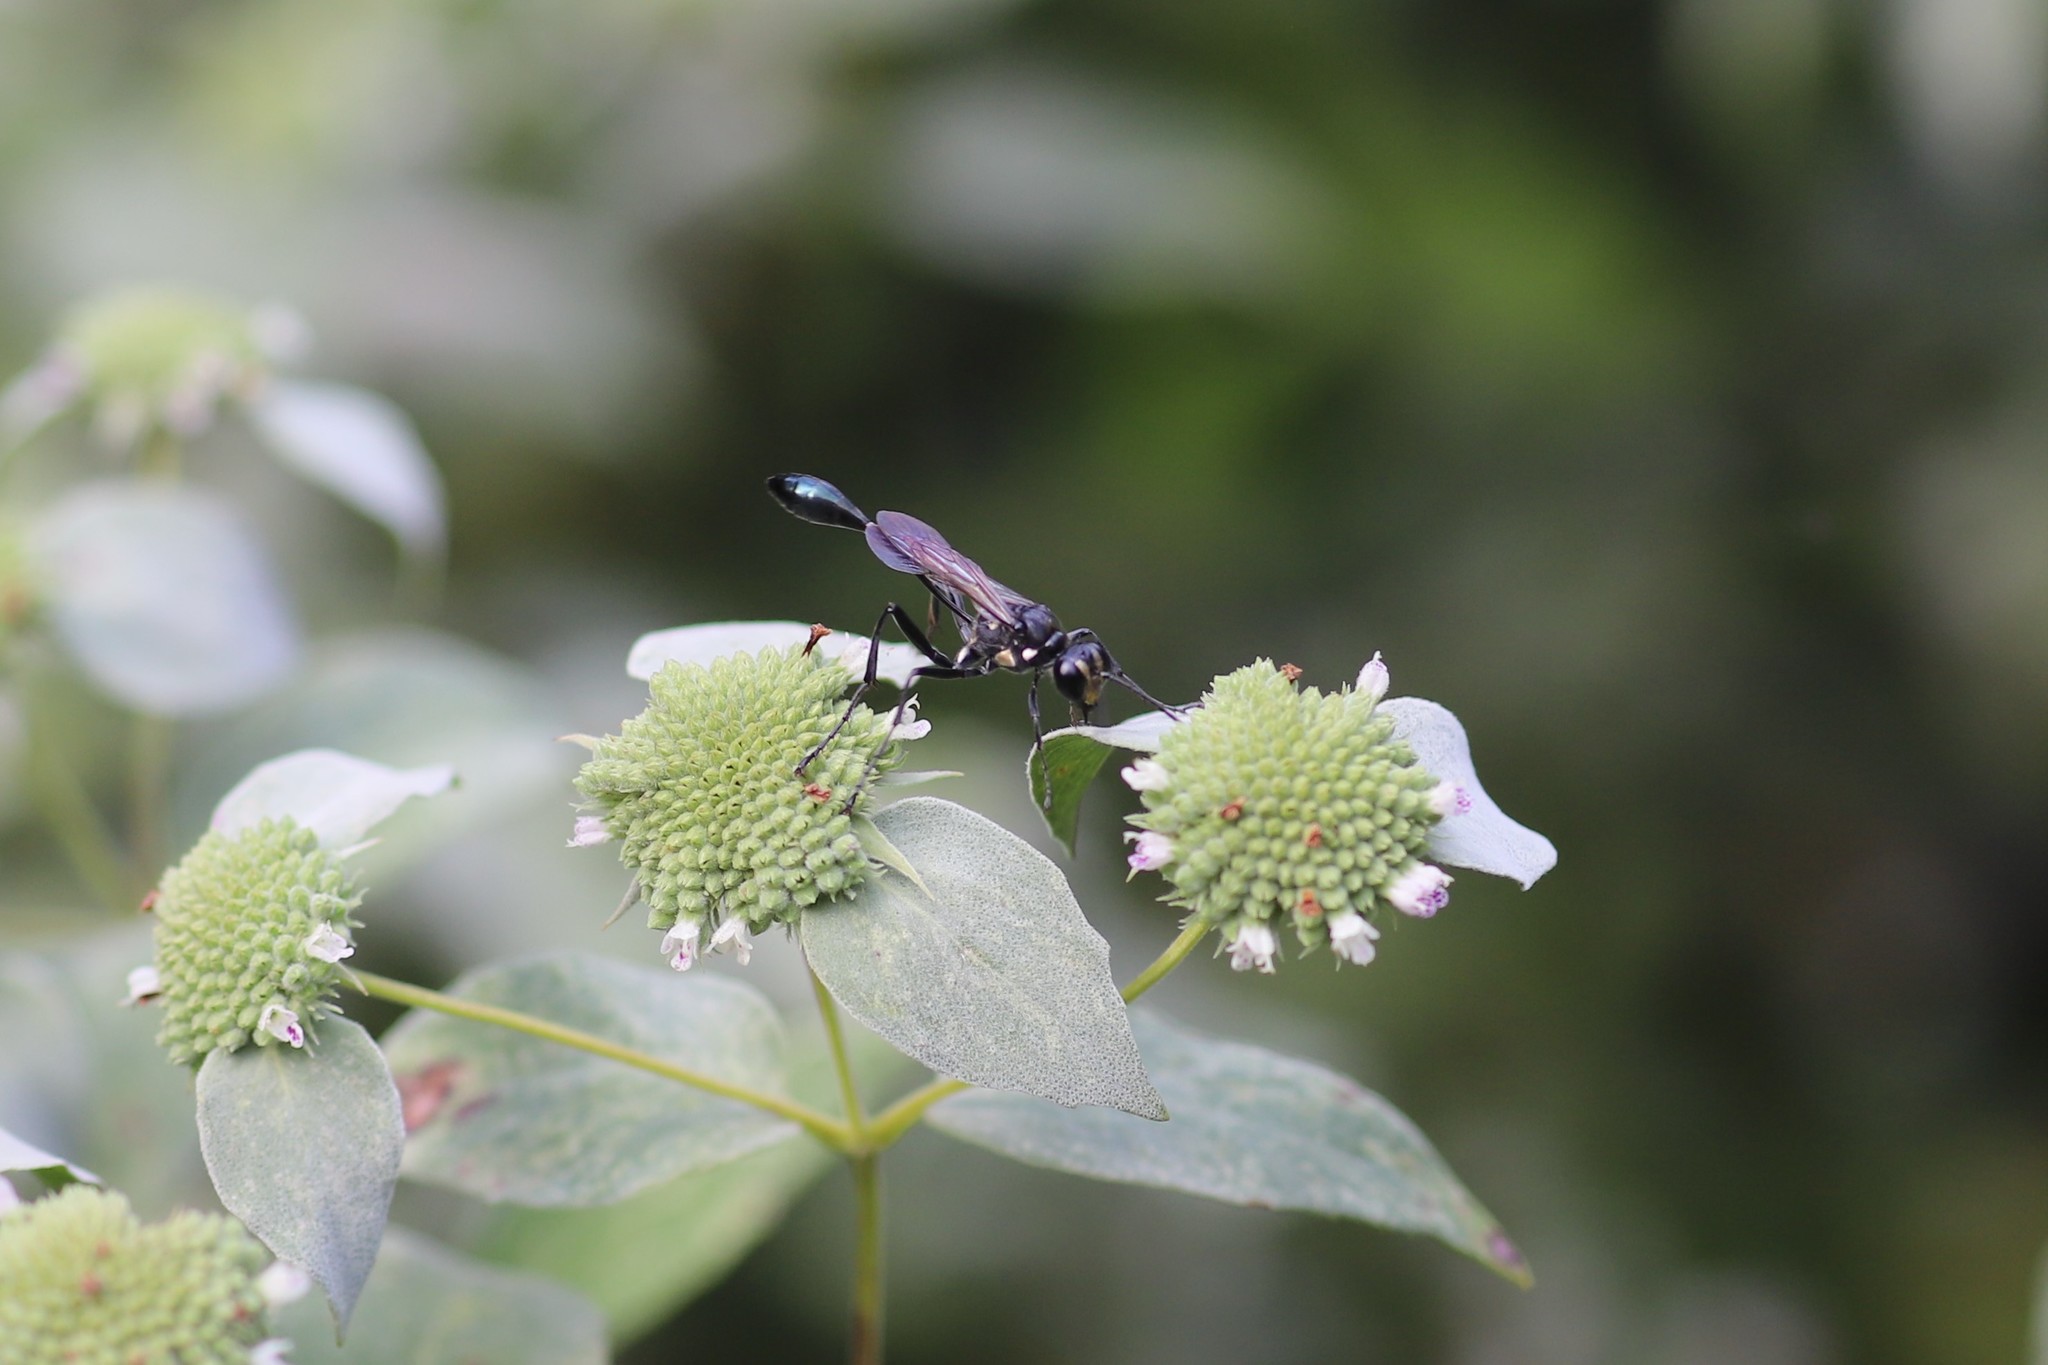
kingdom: Animalia
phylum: Arthropoda
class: Insecta
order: Hymenoptera
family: Sphecidae
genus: Eremnophila
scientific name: Eremnophila aureonotata
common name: Gold-marked thread-waisted wasp
